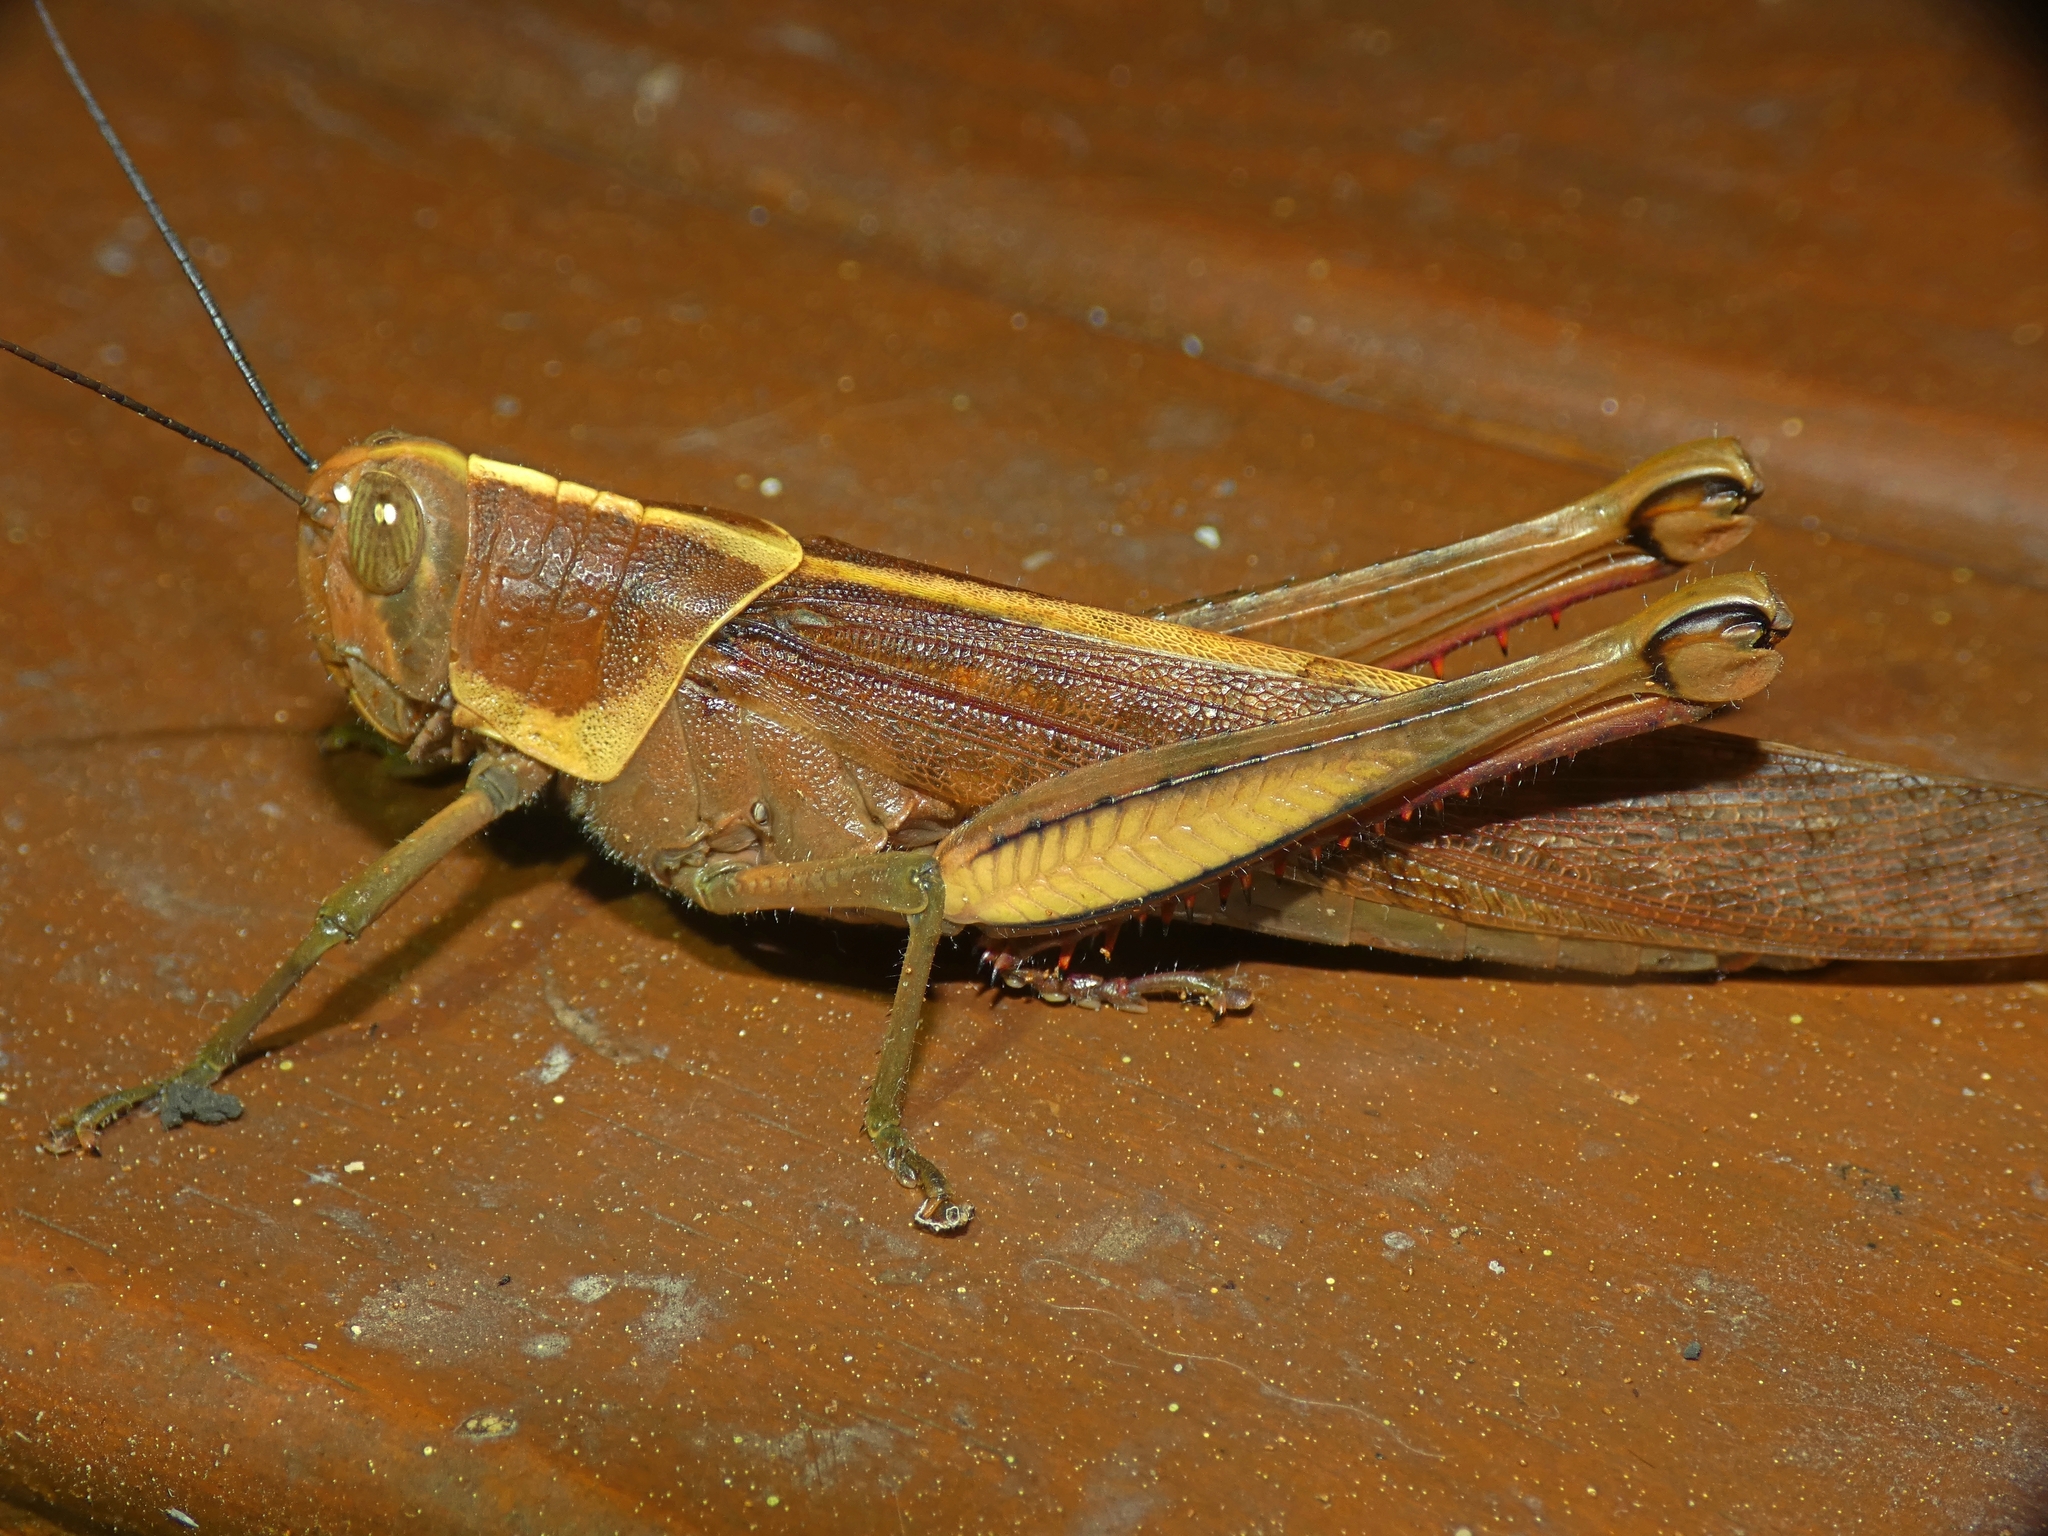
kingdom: Animalia
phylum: Arthropoda
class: Insecta
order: Orthoptera
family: Acrididae
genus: Valanga
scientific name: Valanga irregularis
